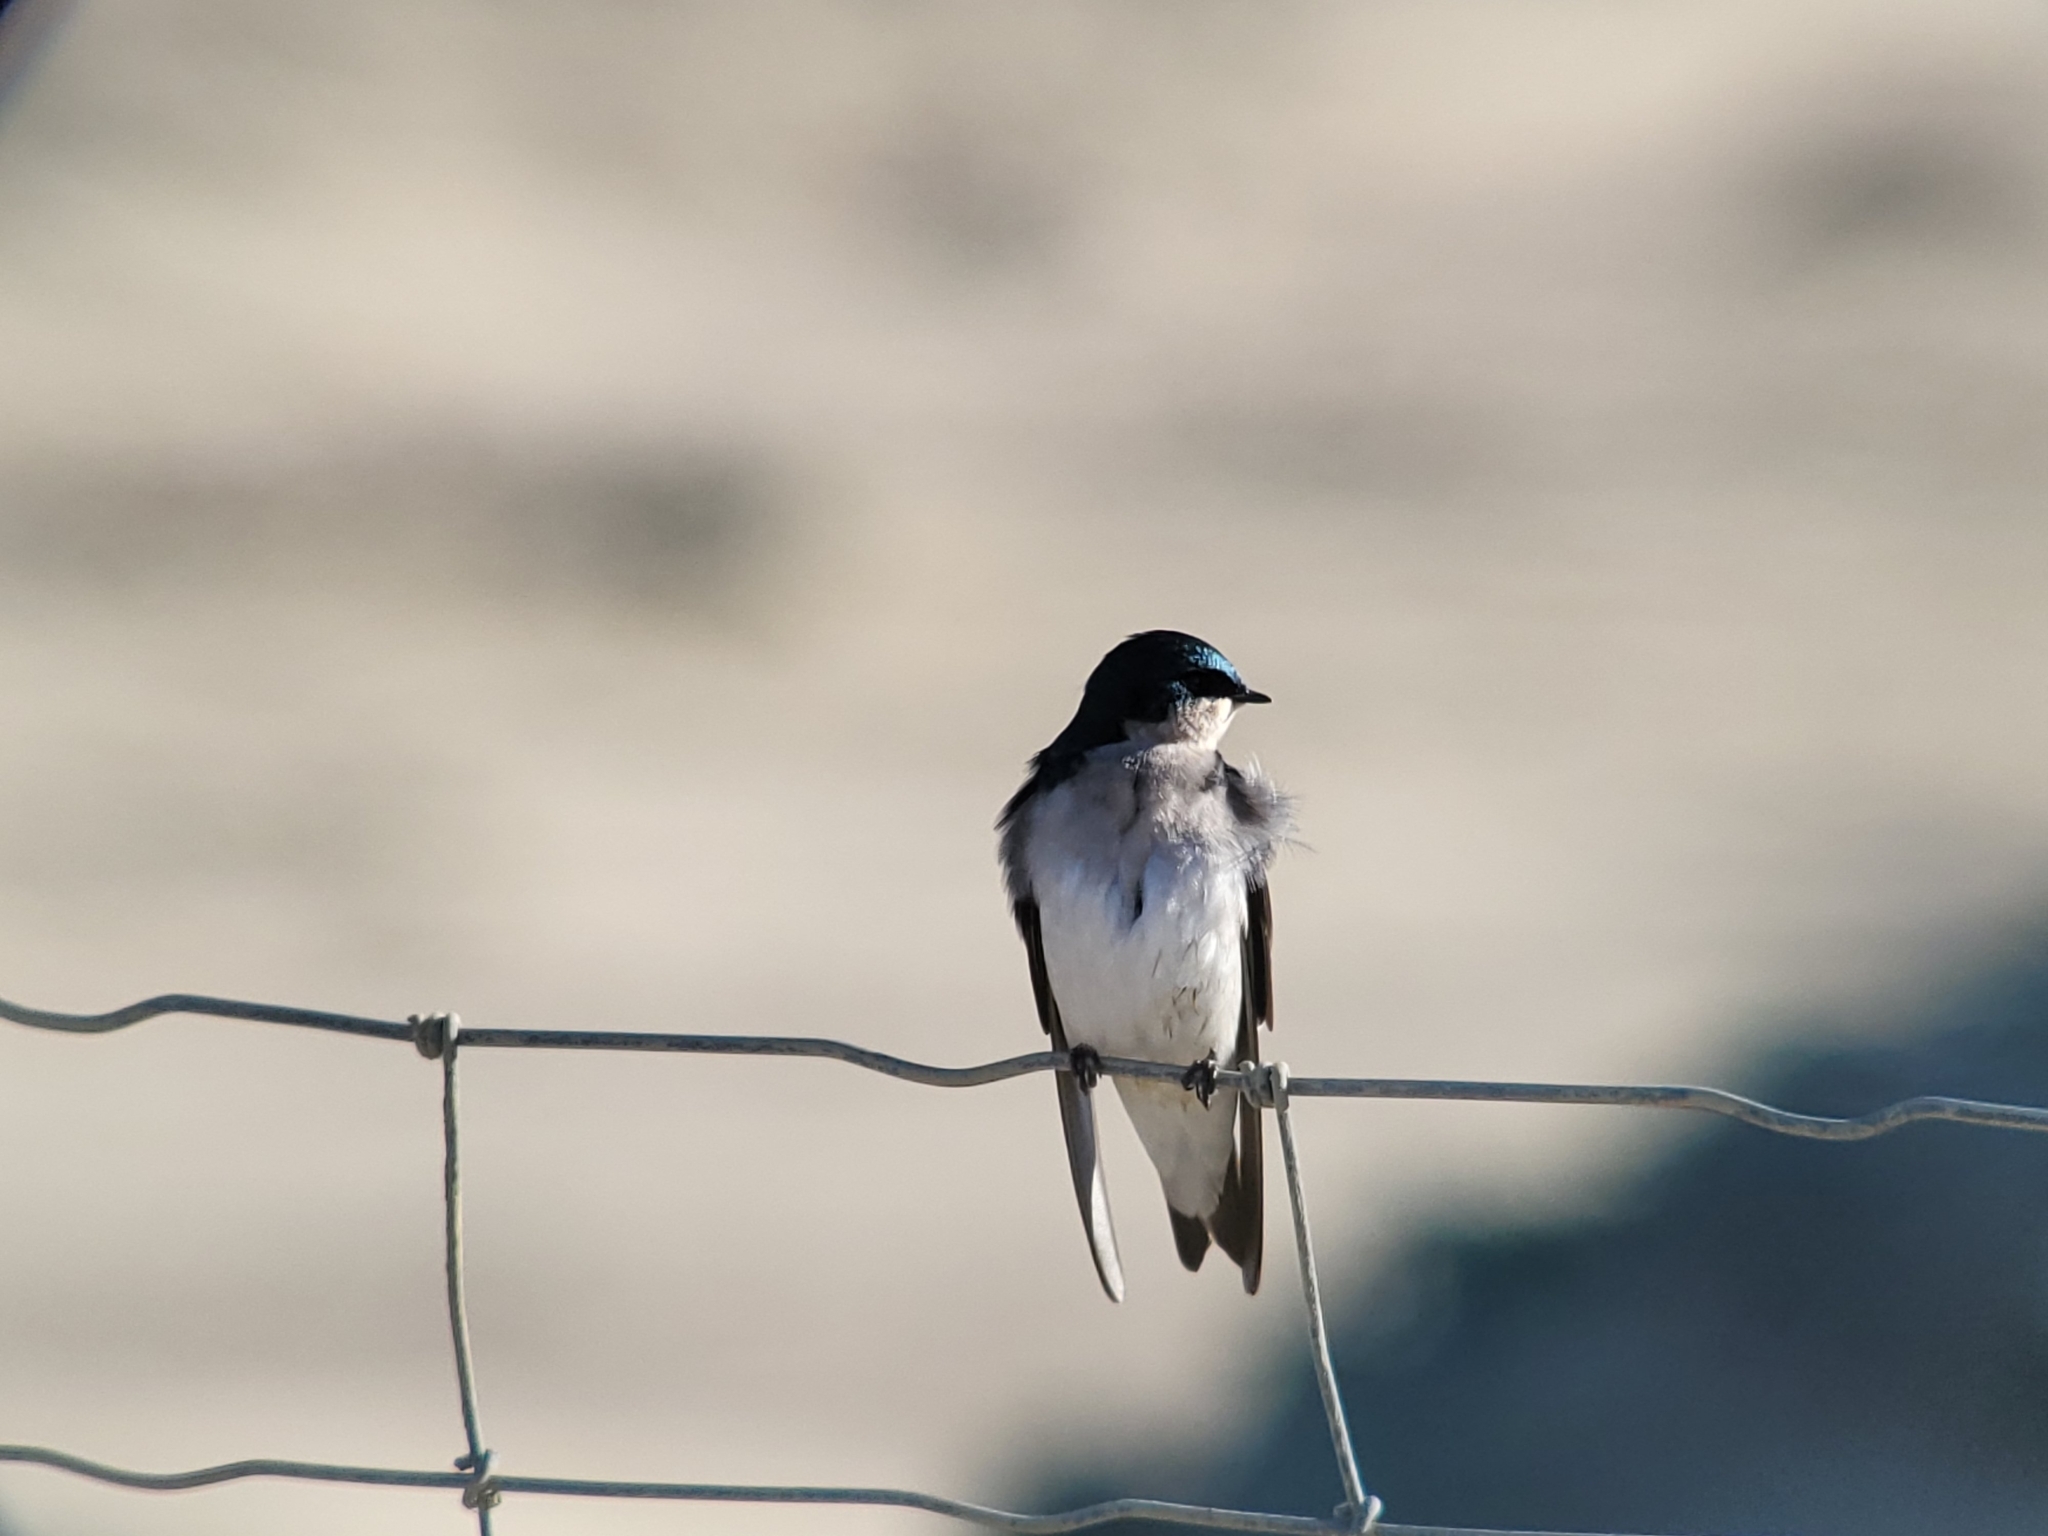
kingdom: Animalia
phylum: Chordata
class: Aves
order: Passeriformes
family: Hirundinidae
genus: Tachycineta
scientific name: Tachycineta bicolor
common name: Tree swallow
